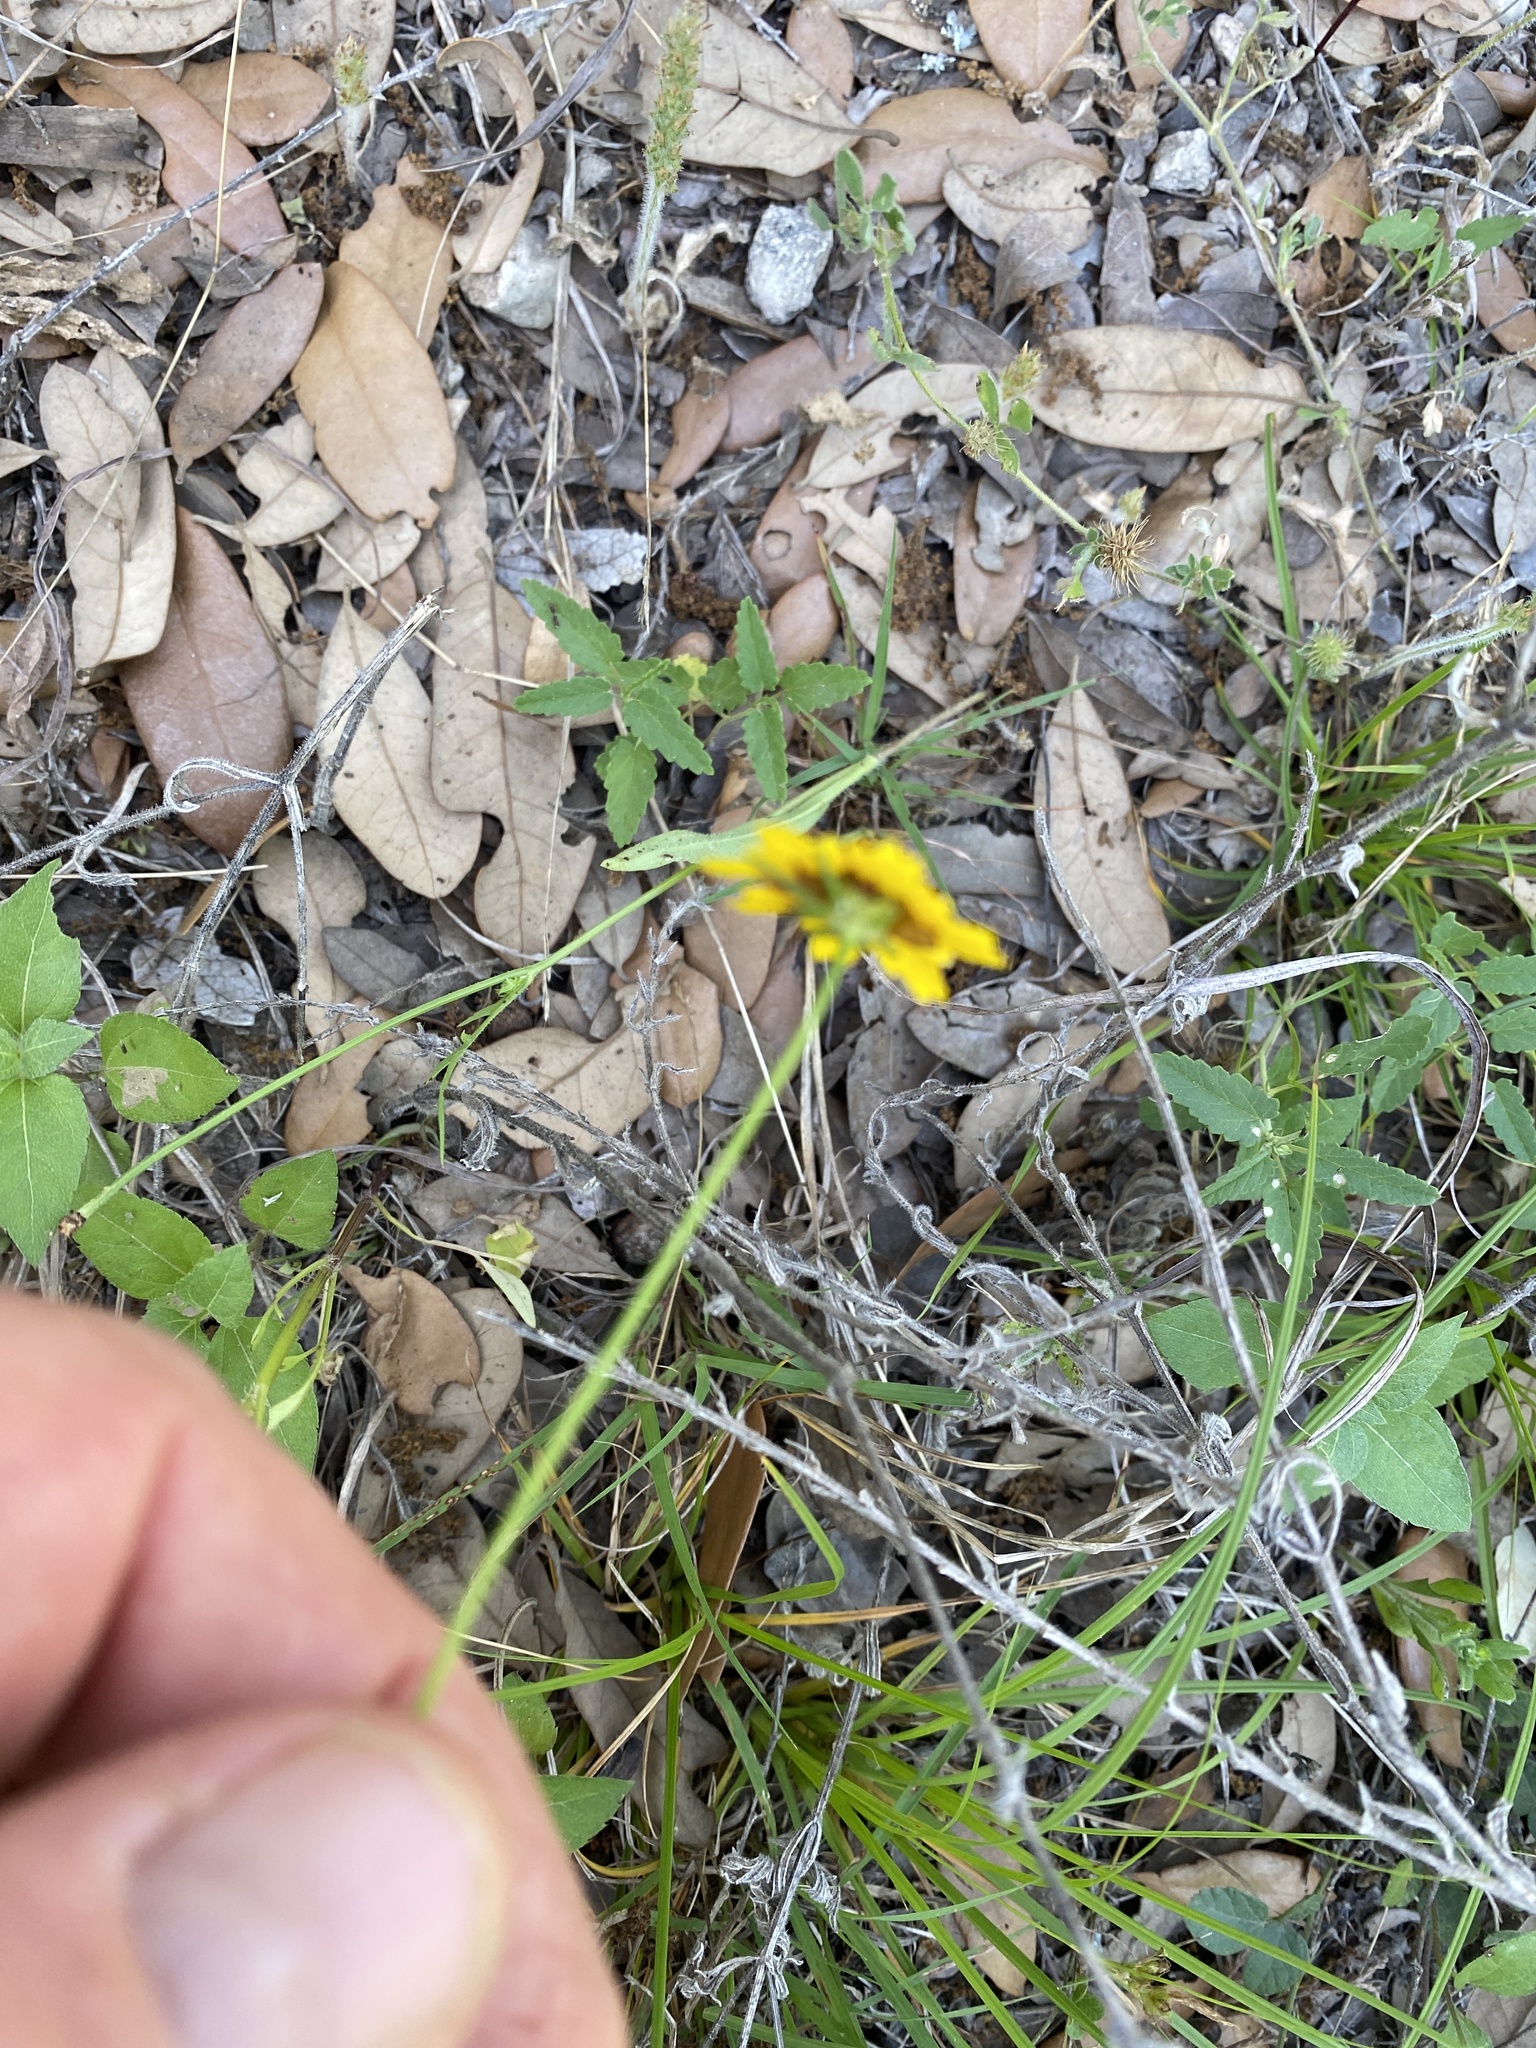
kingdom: Plantae
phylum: Tracheophyta
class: Magnoliopsida
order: Asterales
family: Asteraceae
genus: Thelesperma
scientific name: Thelesperma filifolium
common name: Stiff greenthread
